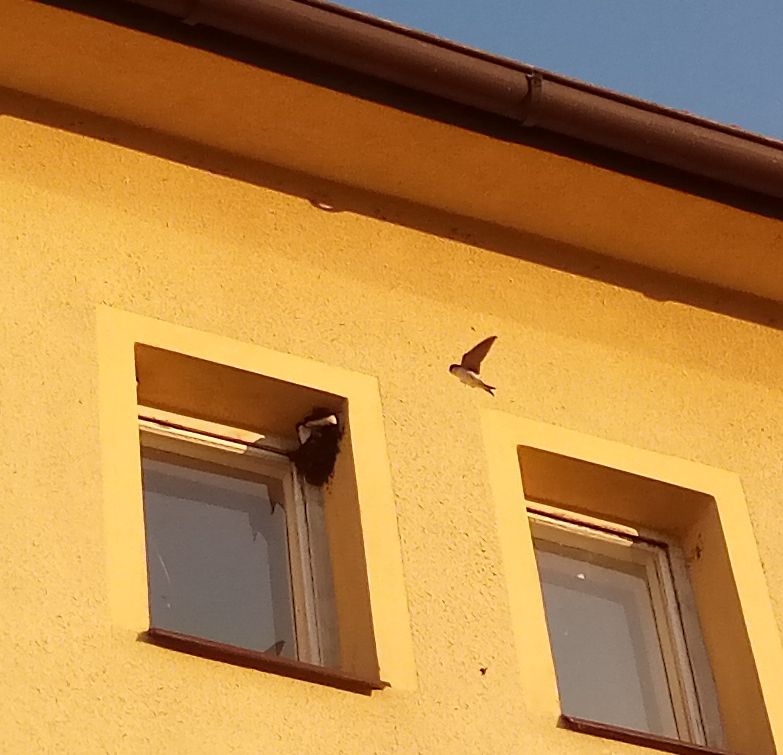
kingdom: Animalia
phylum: Chordata
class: Aves
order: Passeriformes
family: Hirundinidae
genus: Delichon
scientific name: Delichon urbicum
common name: Common house martin
